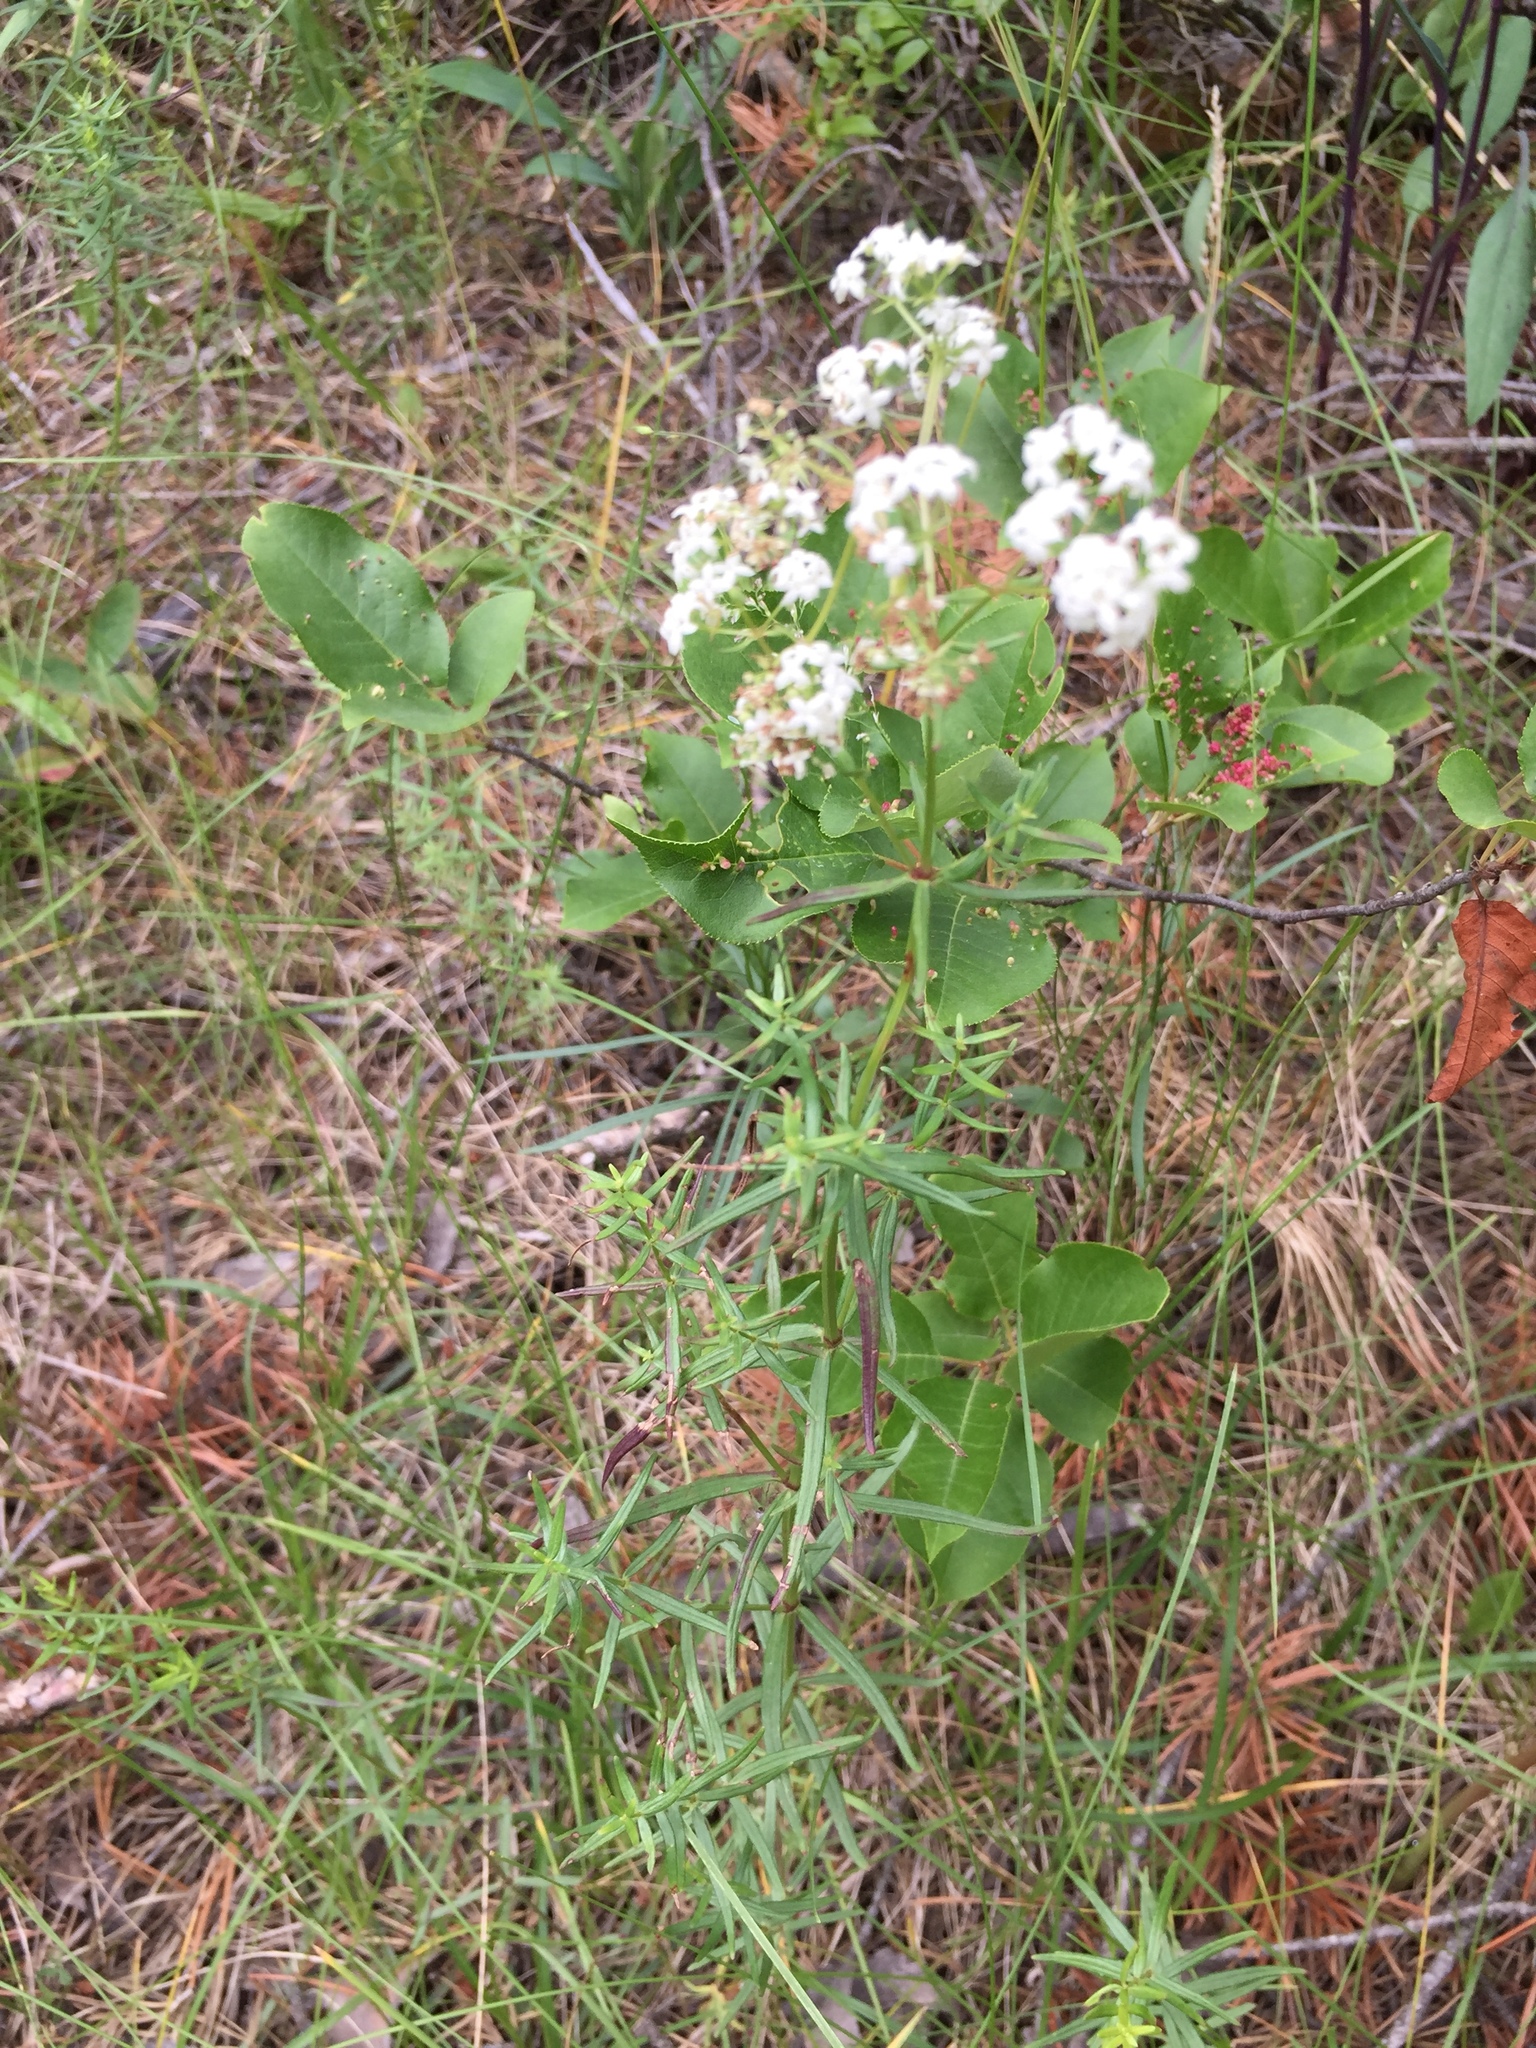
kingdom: Plantae
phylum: Tracheophyta
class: Magnoliopsida
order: Gentianales
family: Rubiaceae
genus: Galium
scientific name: Galium boreale
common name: Northern bedstraw
